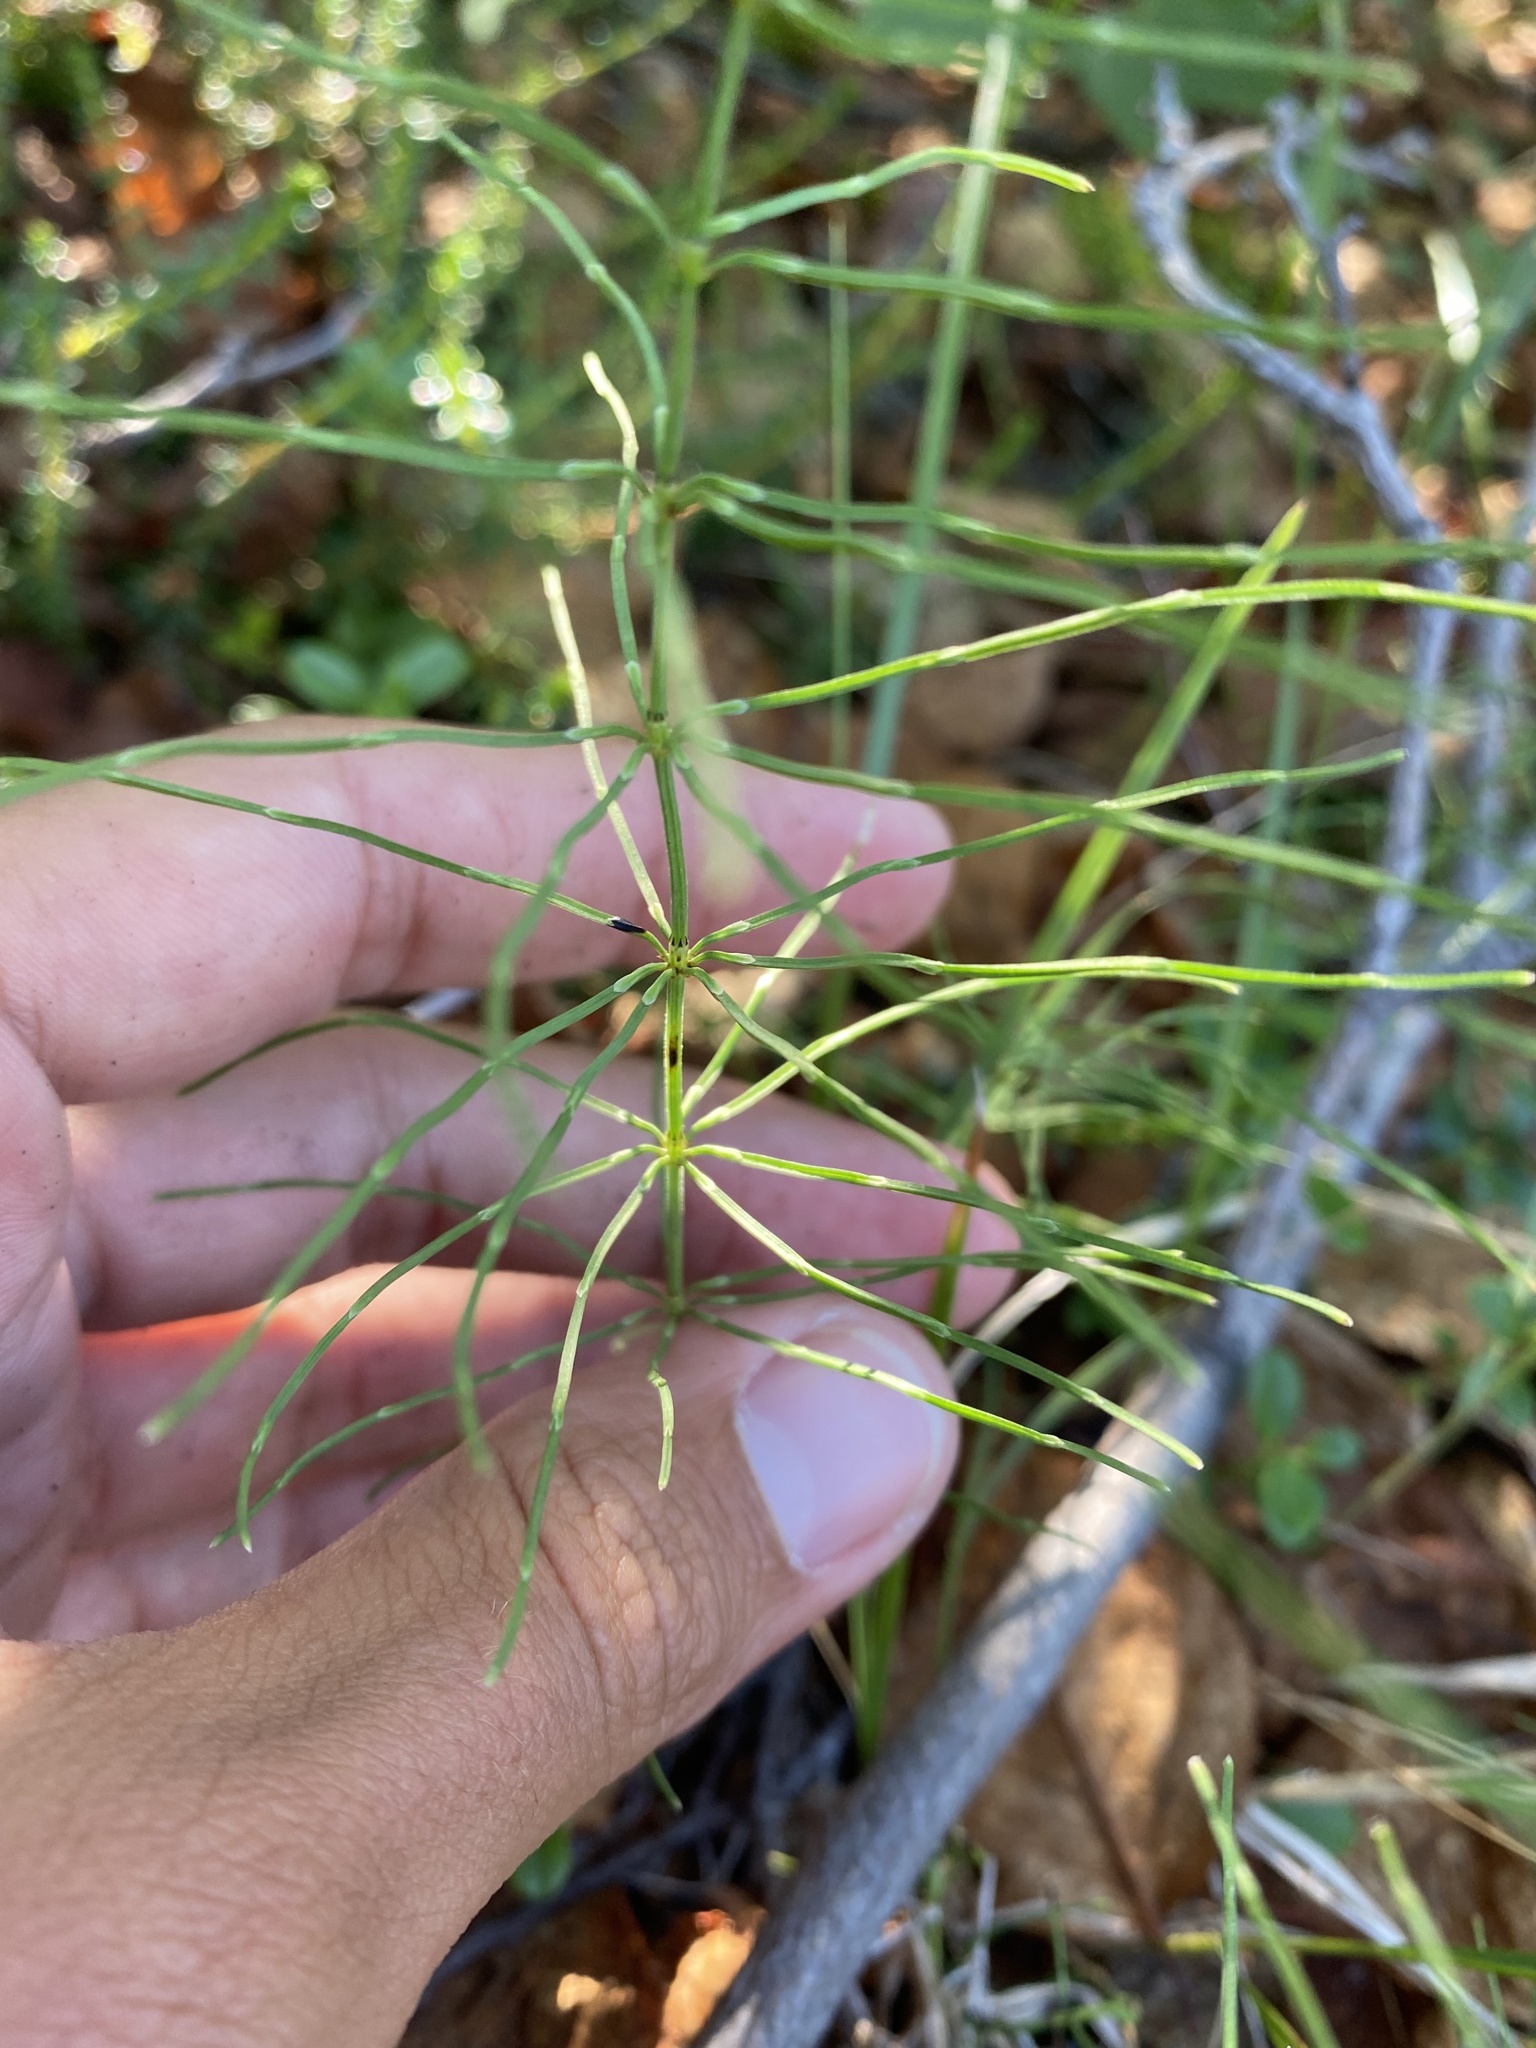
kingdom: Plantae
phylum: Tracheophyta
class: Polypodiopsida
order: Equisetales
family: Equisetaceae
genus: Equisetum
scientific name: Equisetum pratense
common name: Meadow horsetail
